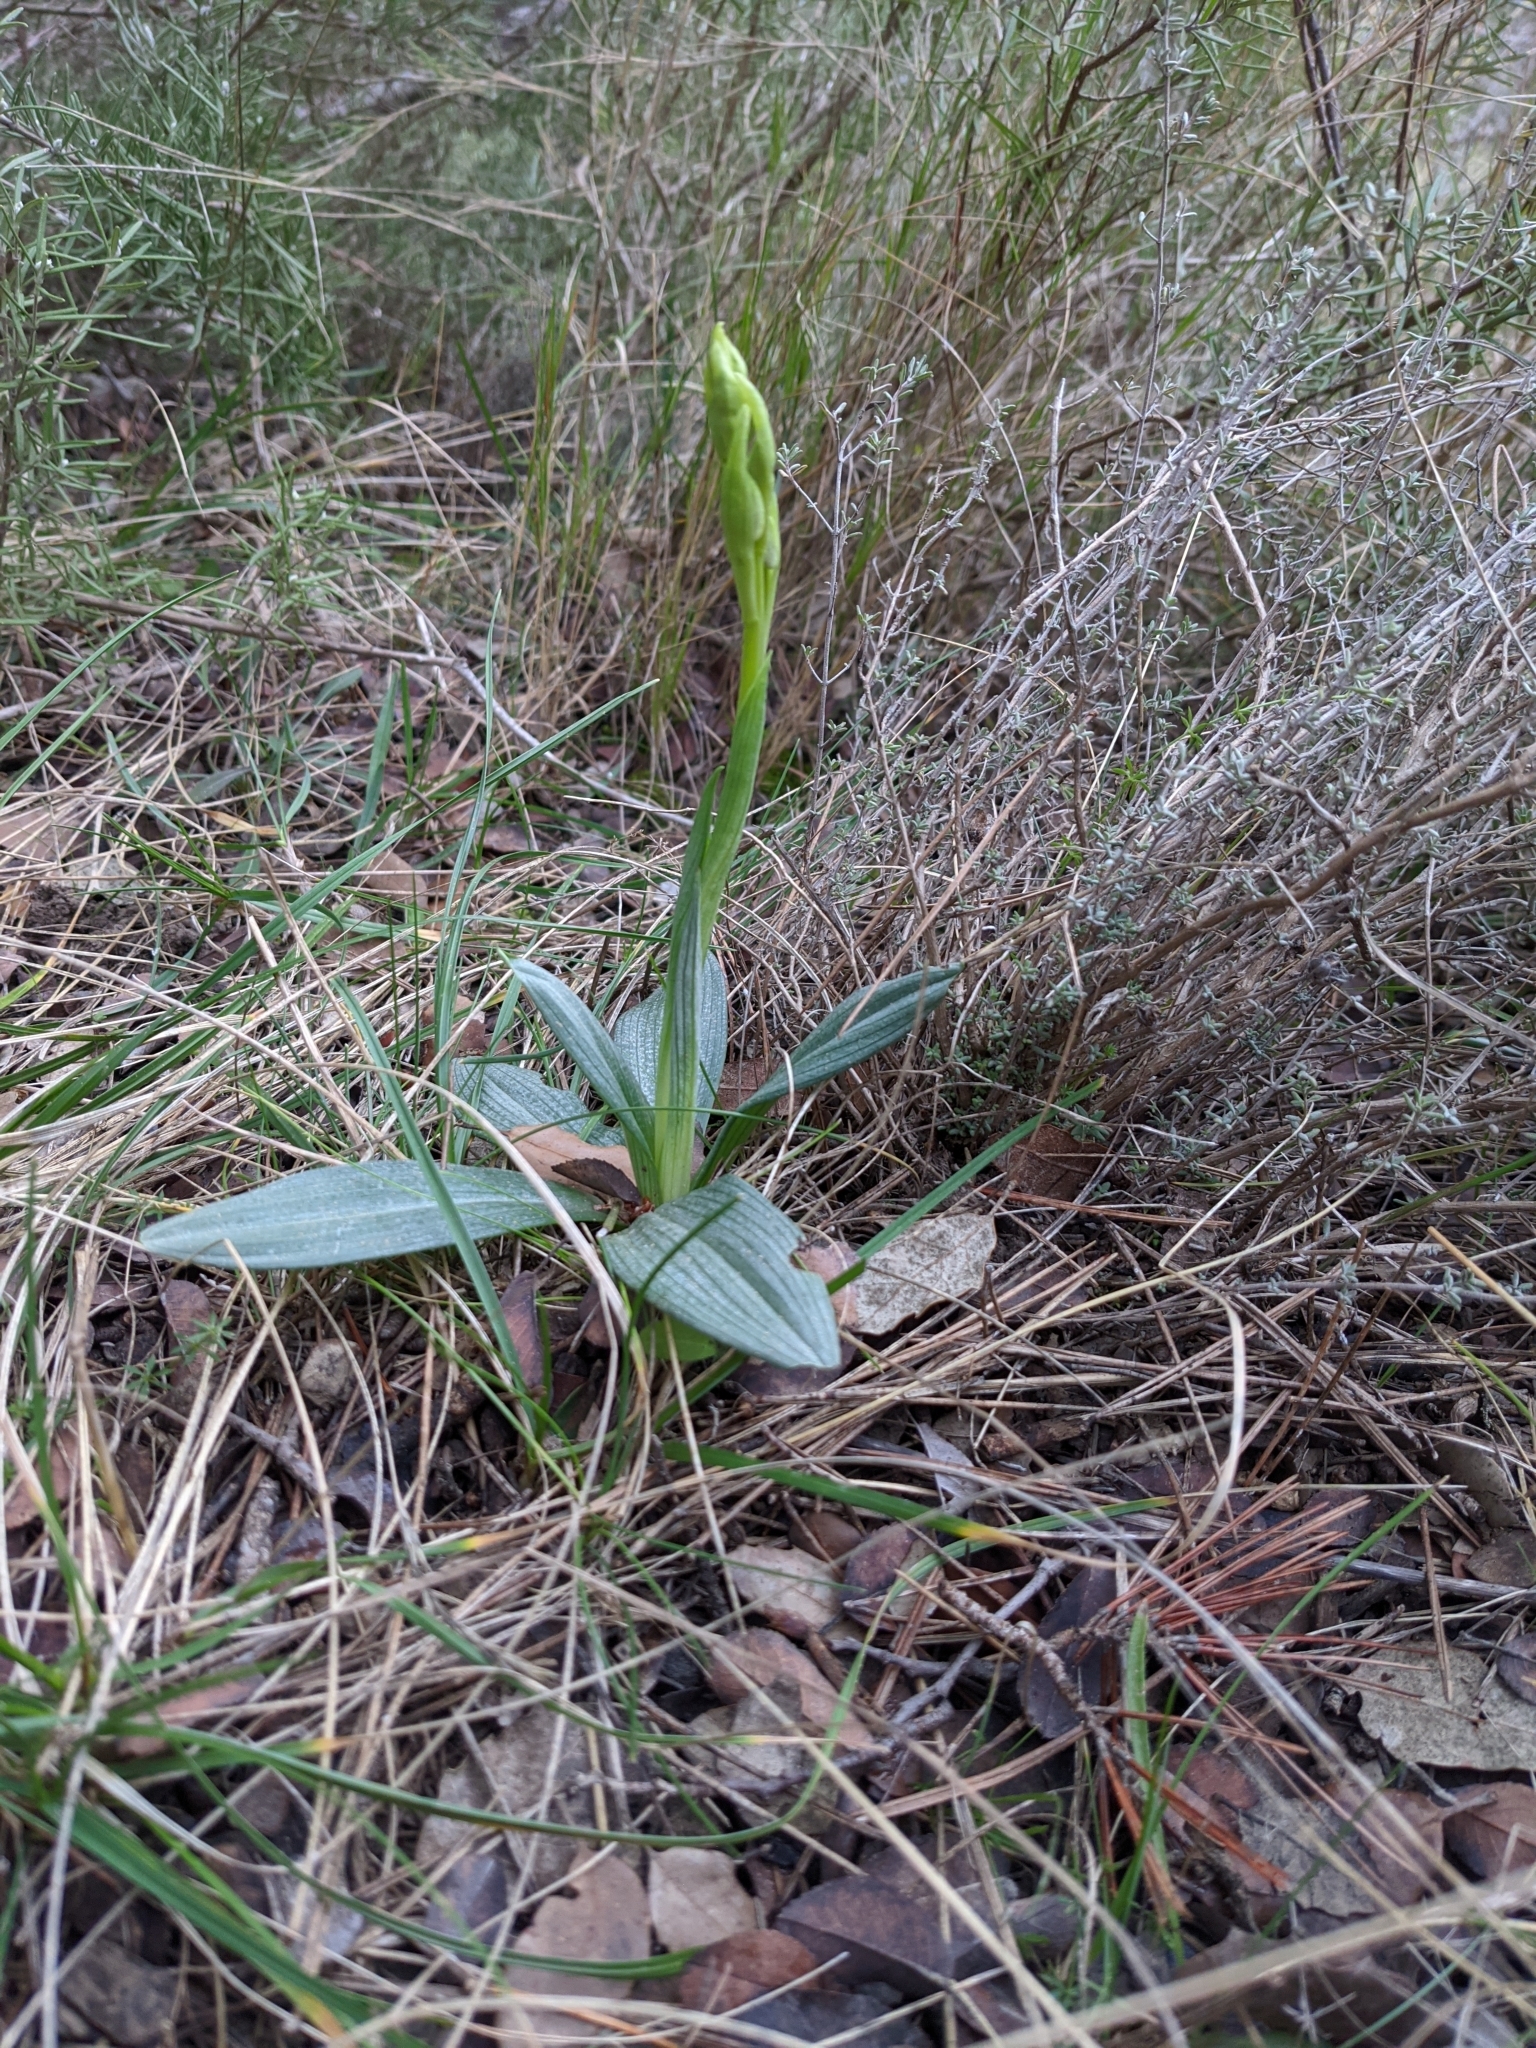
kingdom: Plantae
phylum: Tracheophyta
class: Liliopsida
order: Asparagales
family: Orchidaceae
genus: Ophrys
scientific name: Ophrys sphegodes
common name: Early spider-orchid
